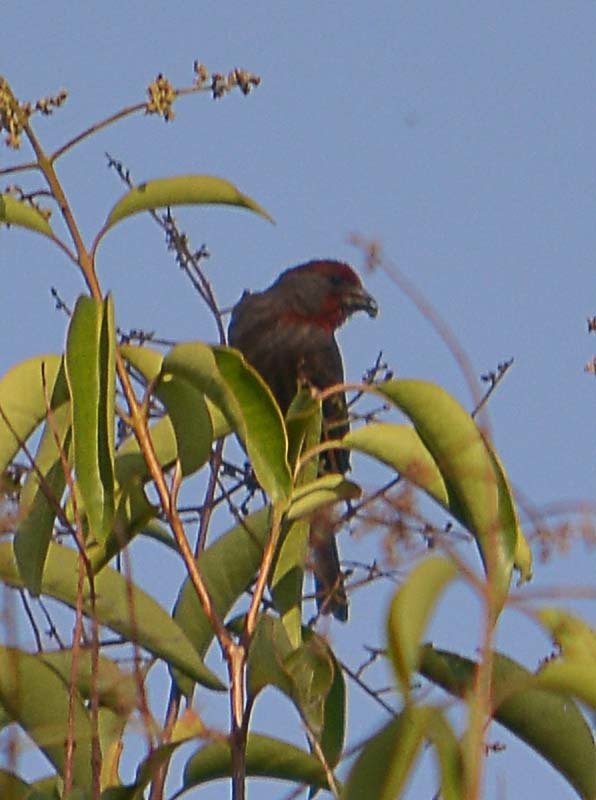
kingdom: Animalia
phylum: Chordata
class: Aves
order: Passeriformes
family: Fringillidae
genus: Haemorhous
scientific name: Haemorhous mexicanus
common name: House finch
